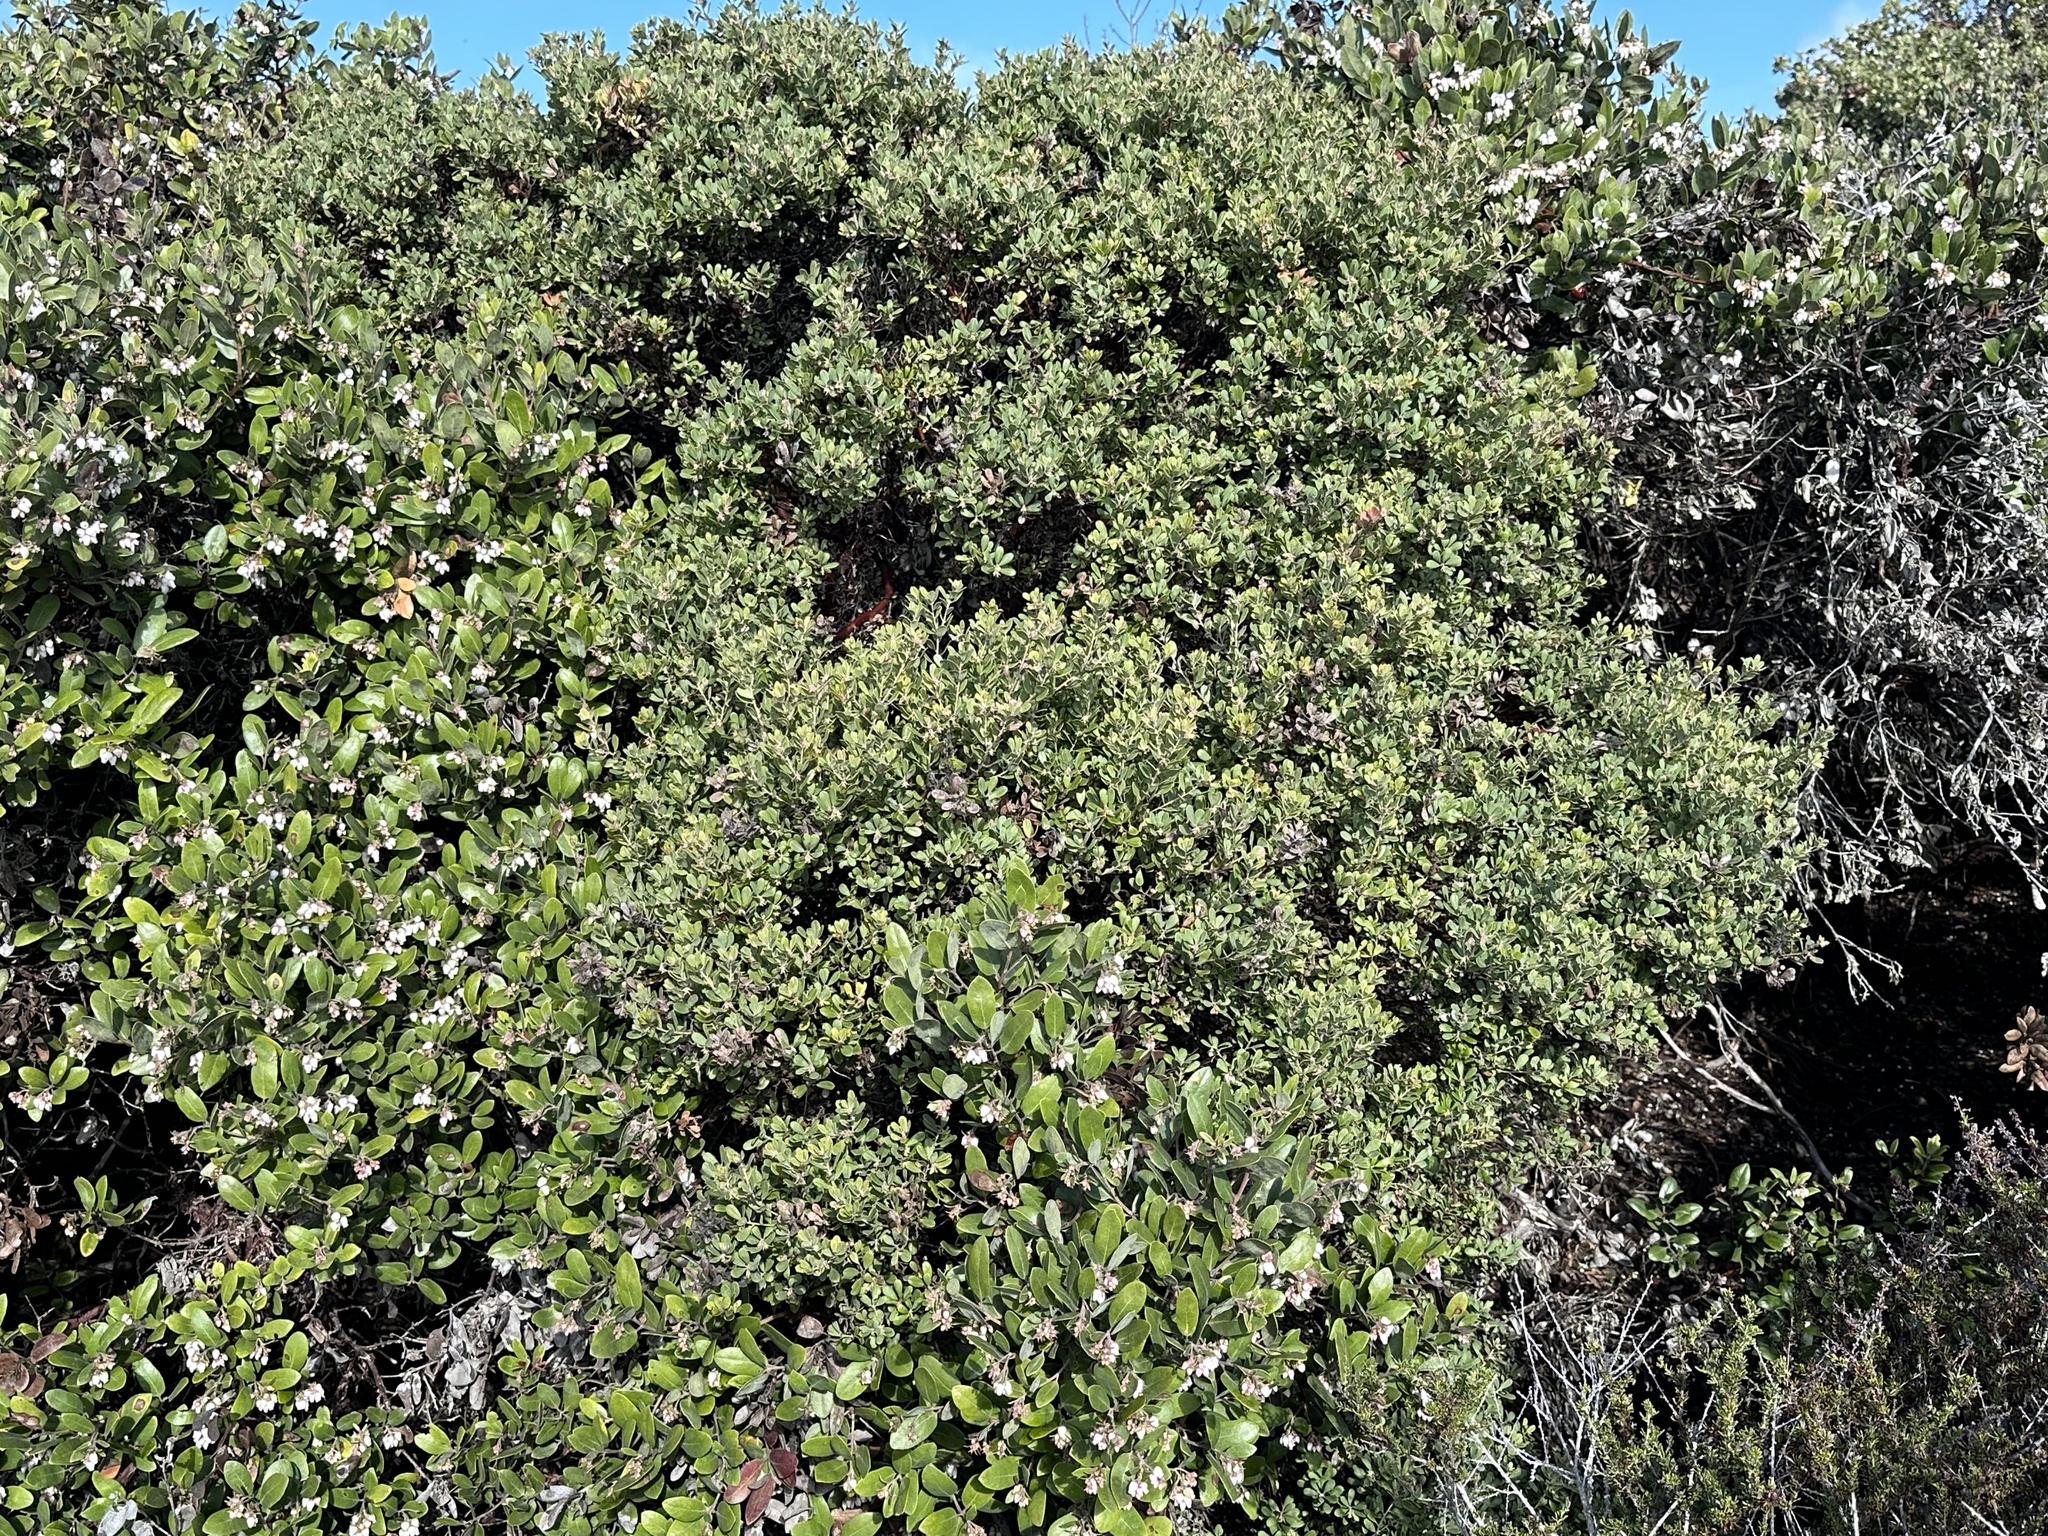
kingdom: Plantae
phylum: Tracheophyta
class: Magnoliopsida
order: Ericales
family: Ericaceae
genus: Arctostaphylos
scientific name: Arctostaphylos pumila
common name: Sandmat manzanita
